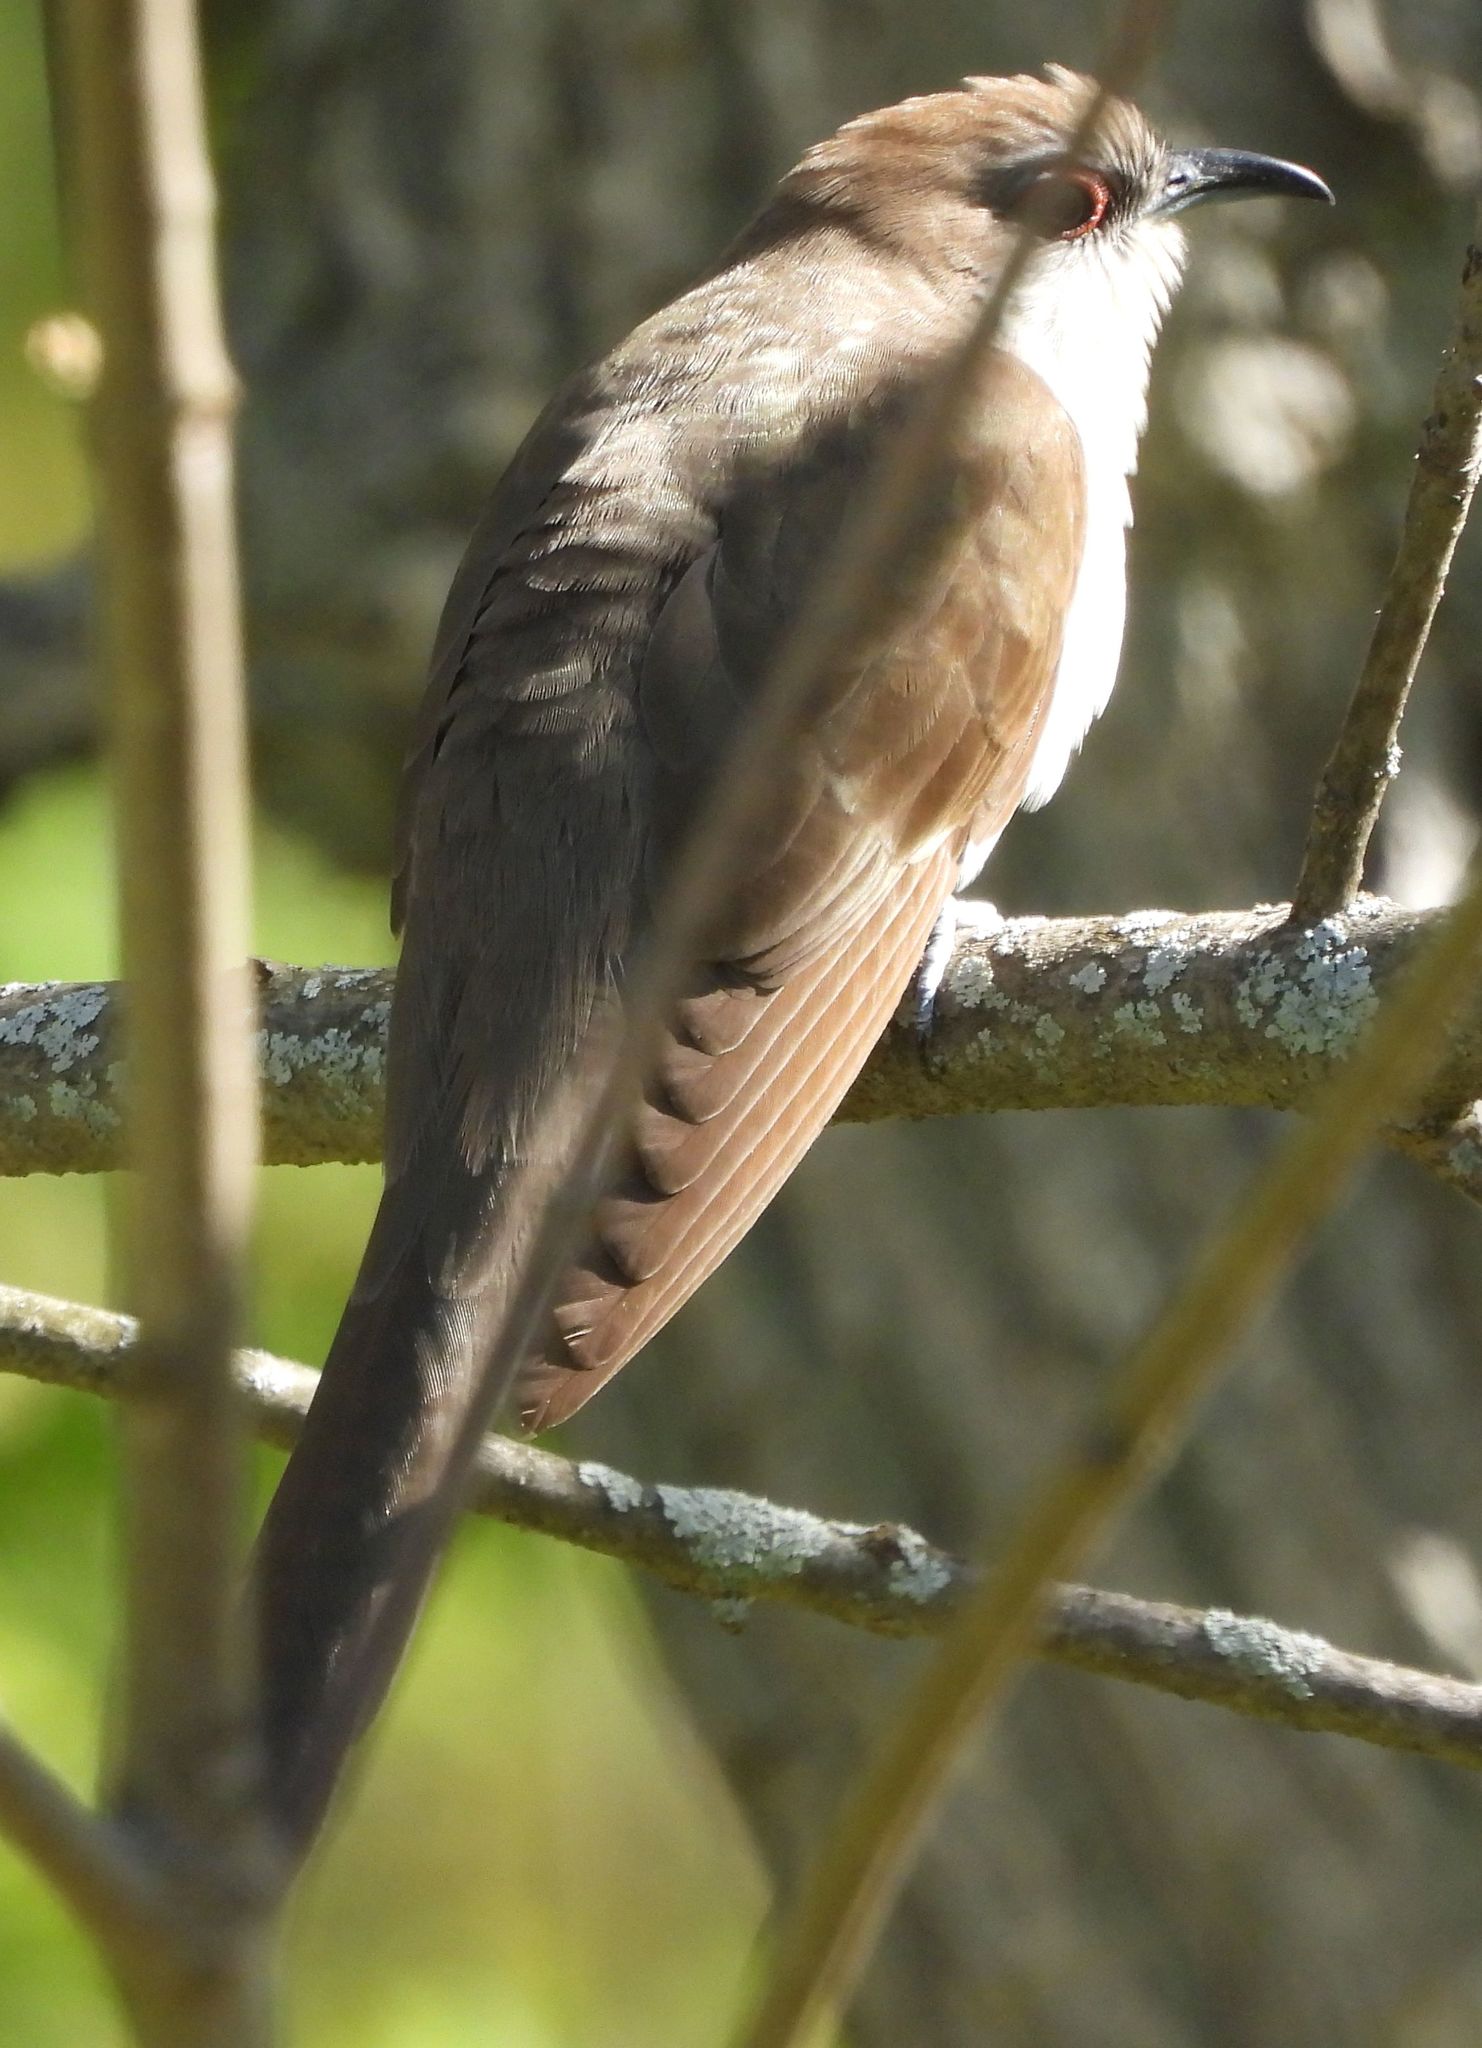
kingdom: Animalia
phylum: Chordata
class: Aves
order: Cuculiformes
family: Cuculidae
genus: Coccyzus
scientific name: Coccyzus erythropthalmus
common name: Black-billed cuckoo
